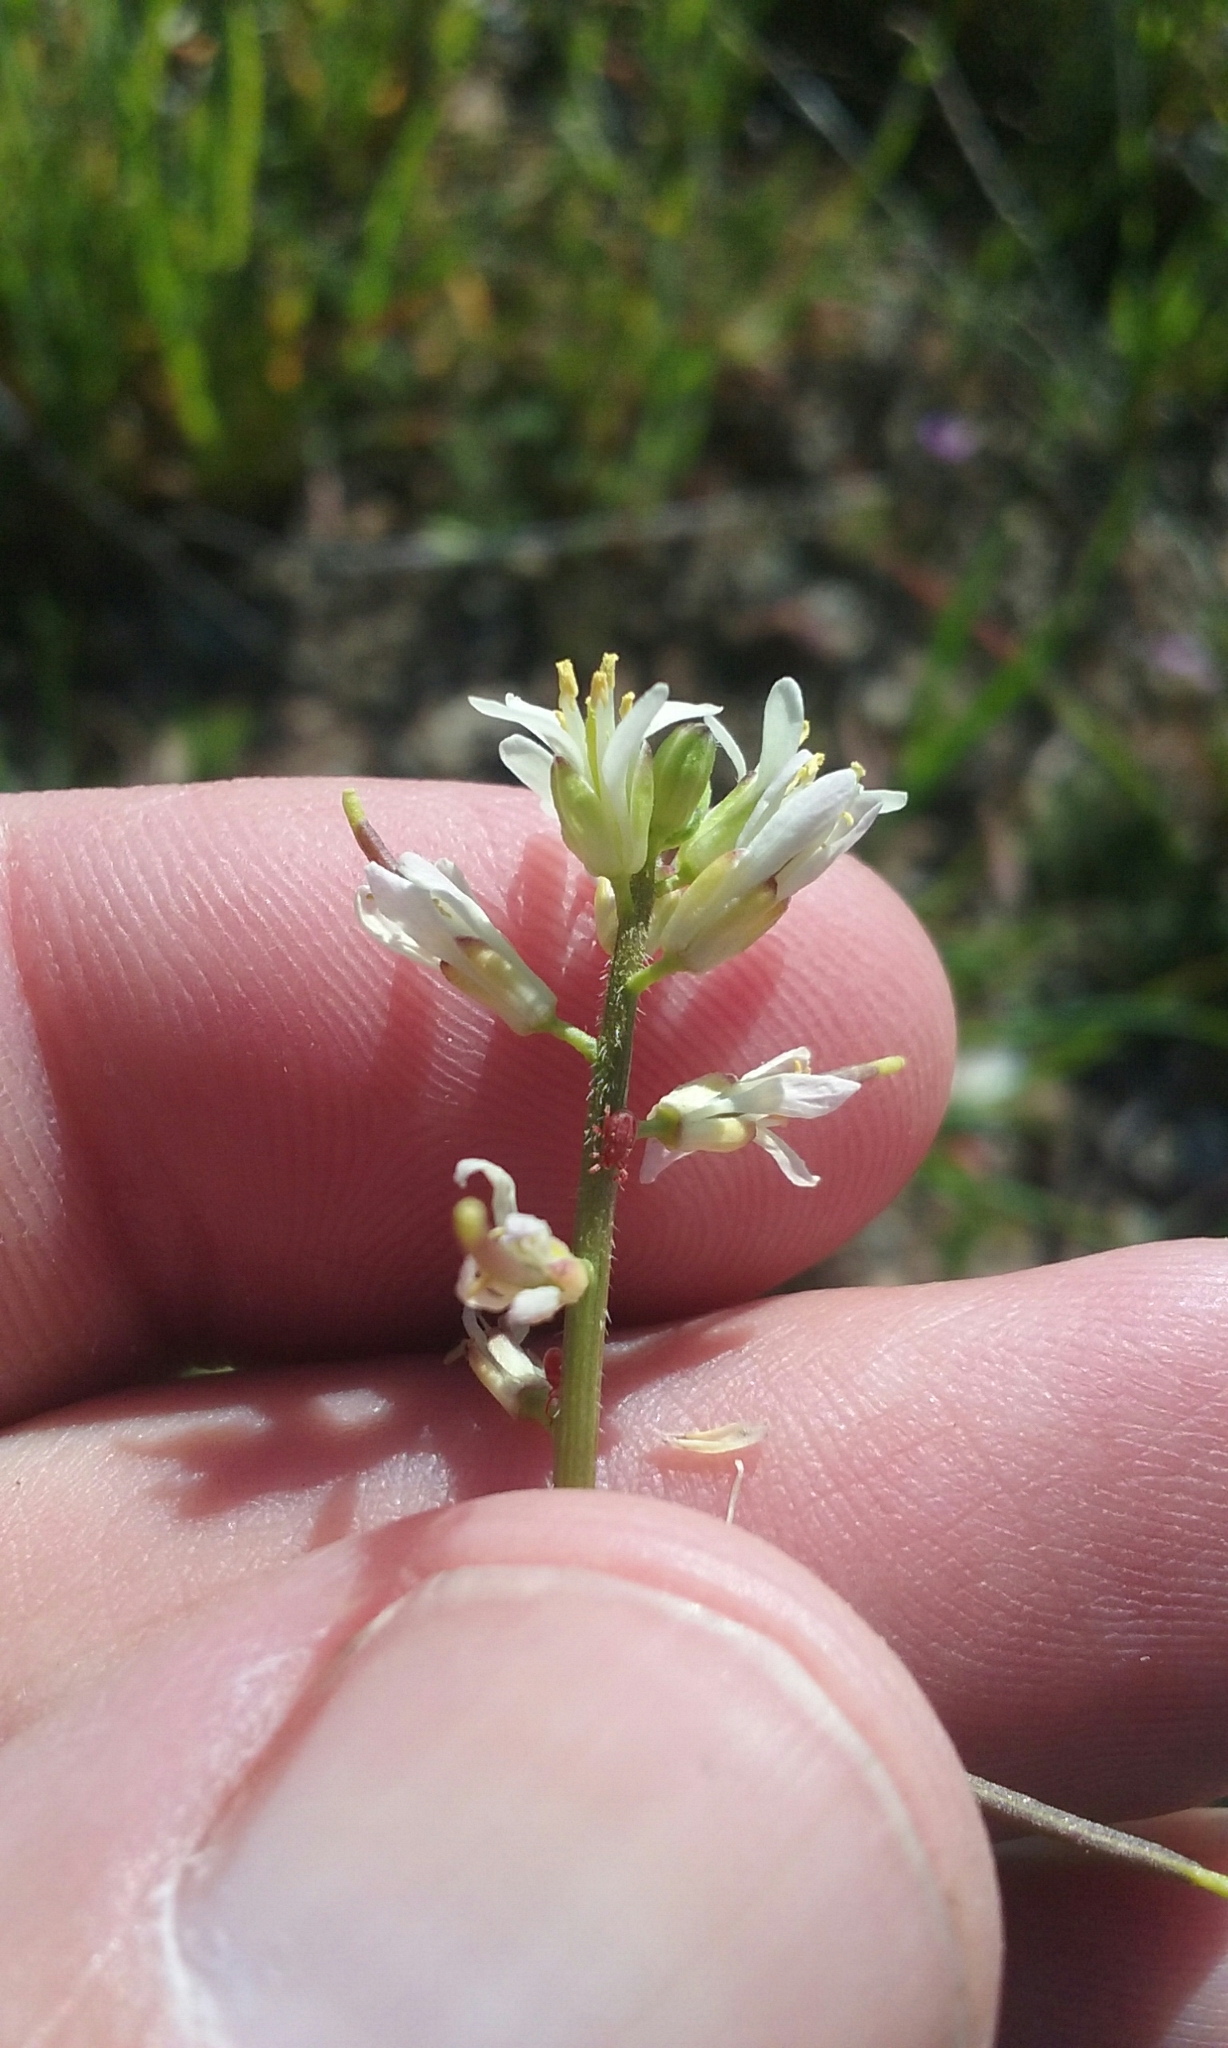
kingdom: Plantae
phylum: Tracheophyta
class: Magnoliopsida
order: Brassicales
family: Brassicaceae
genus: Streptanthus
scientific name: Streptanthus lasiophyllus
